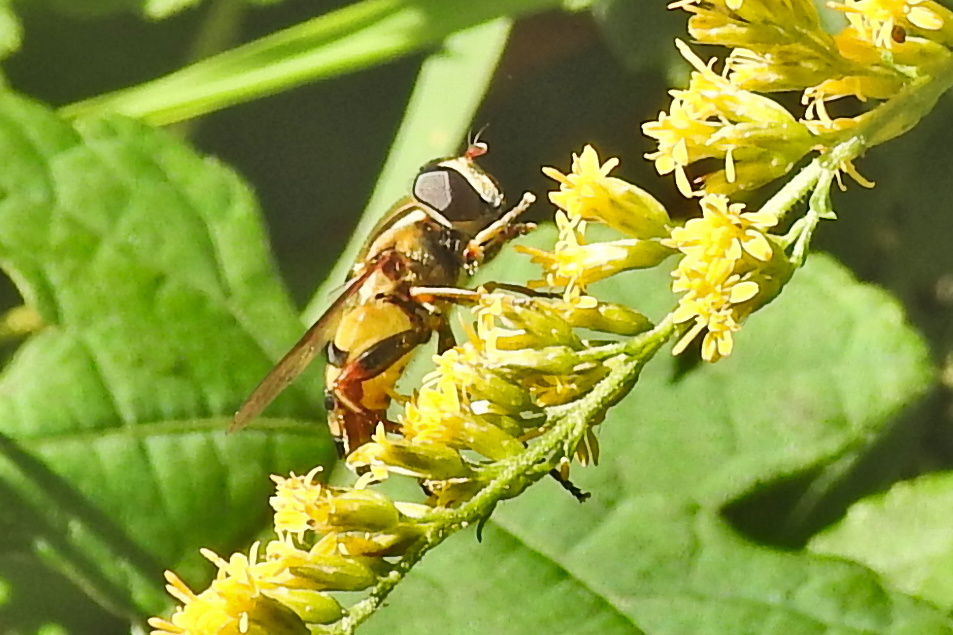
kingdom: Animalia
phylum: Arthropoda
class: Insecta
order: Diptera
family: Syrphidae
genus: Helophilus
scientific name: Helophilus fasciatus
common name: Narrow-headed marsh fly
